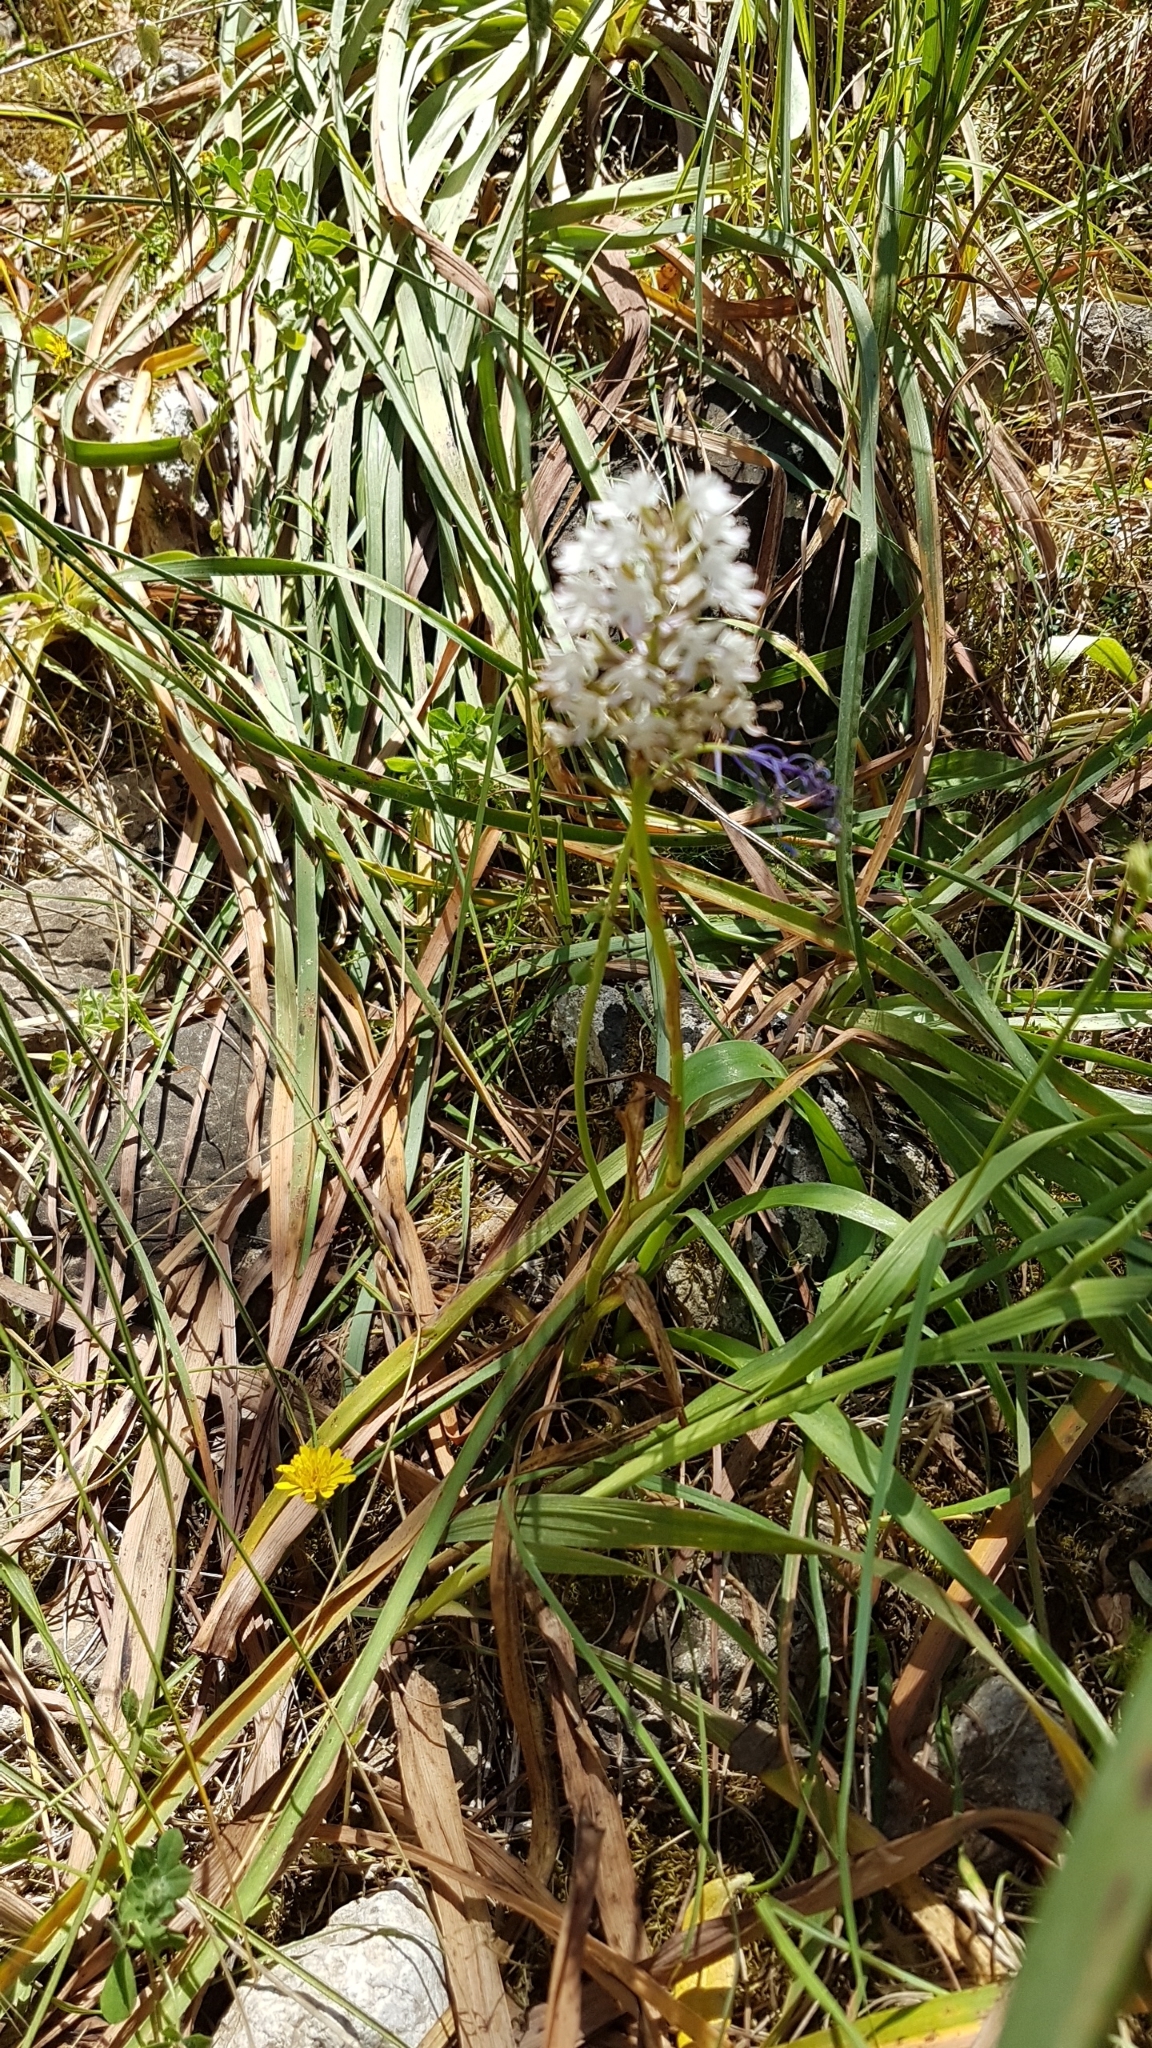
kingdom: Plantae
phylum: Tracheophyta
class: Liliopsida
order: Asparagales
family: Orchidaceae
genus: Anacamptis
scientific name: Anacamptis pyramidalis
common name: Pyramidal orchid
